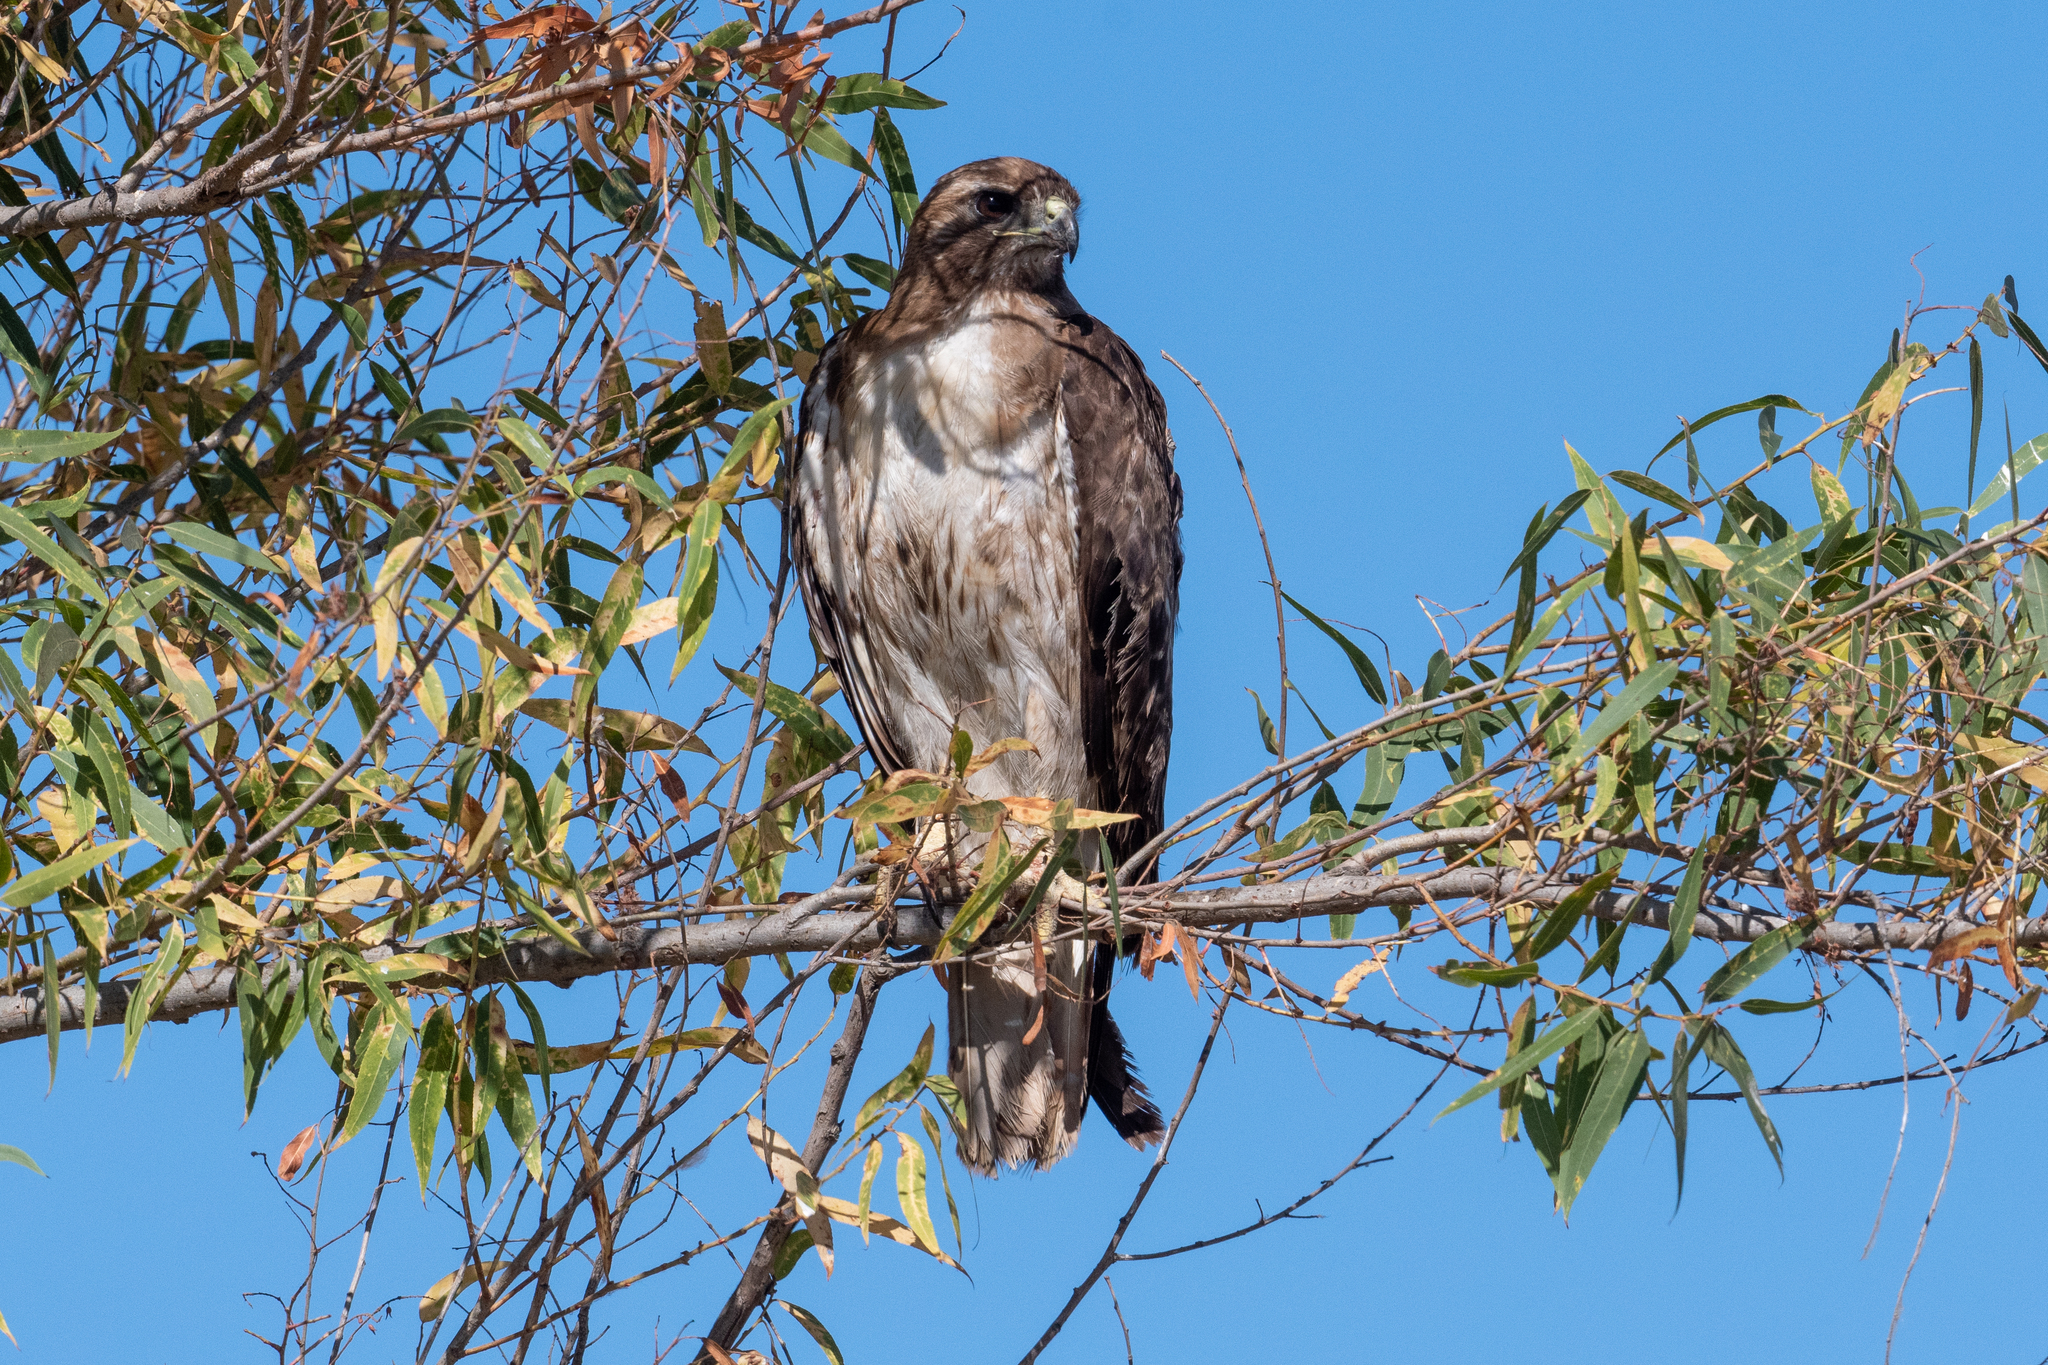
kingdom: Animalia
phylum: Chordata
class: Aves
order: Accipitriformes
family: Accipitridae
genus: Buteo
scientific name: Buteo jamaicensis
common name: Red-tailed hawk
